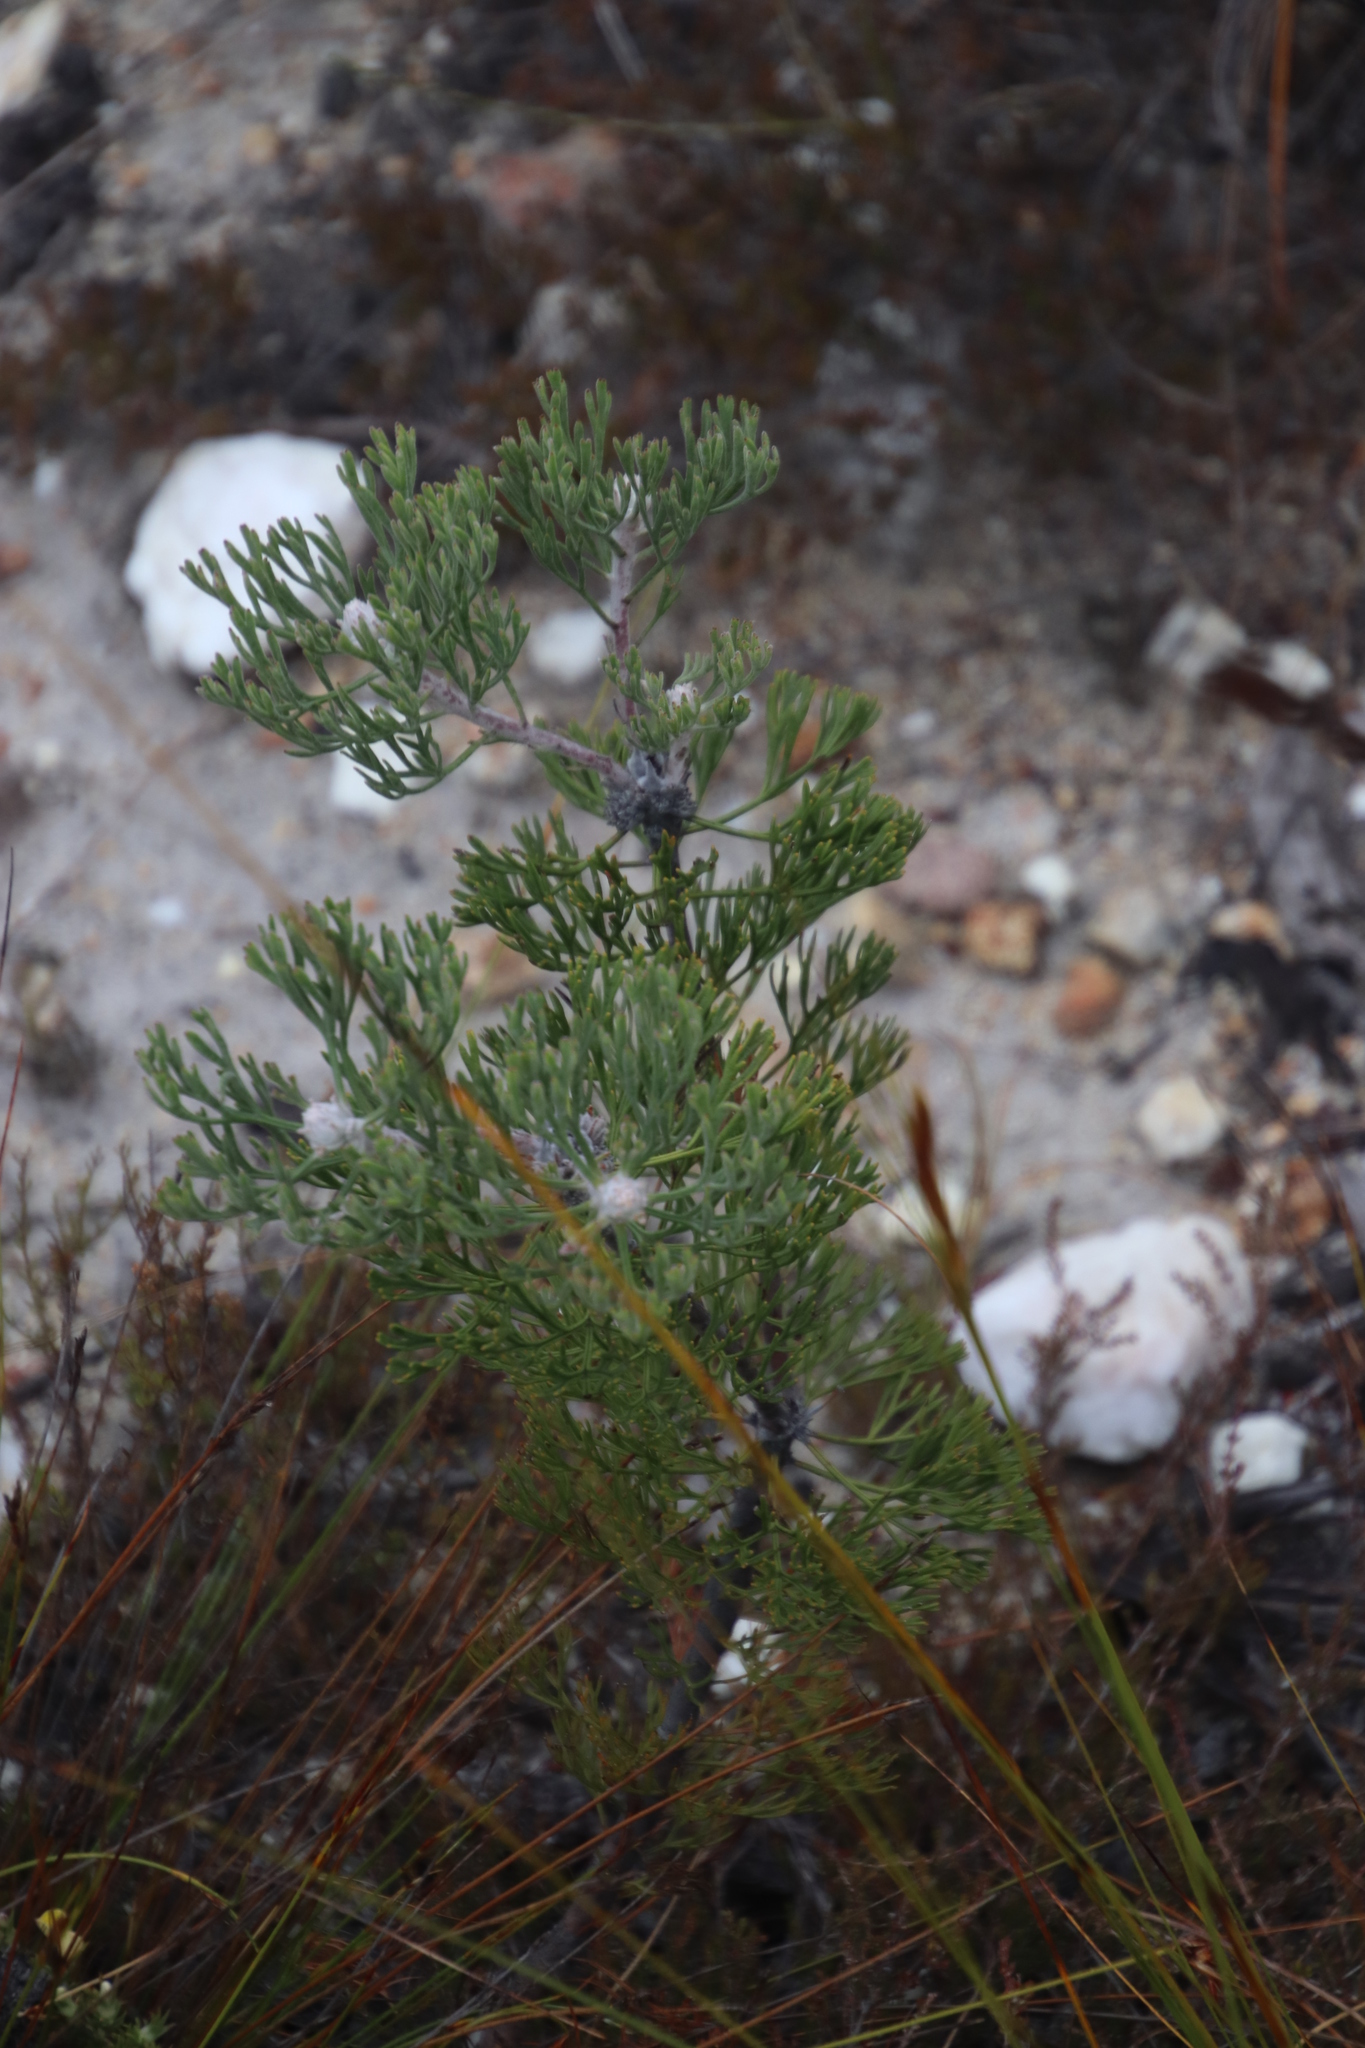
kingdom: Plantae
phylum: Tracheophyta
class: Magnoliopsida
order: Proteales
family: Proteaceae
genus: Paranomus
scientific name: Paranomus bolusii
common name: Overberg sceptre
